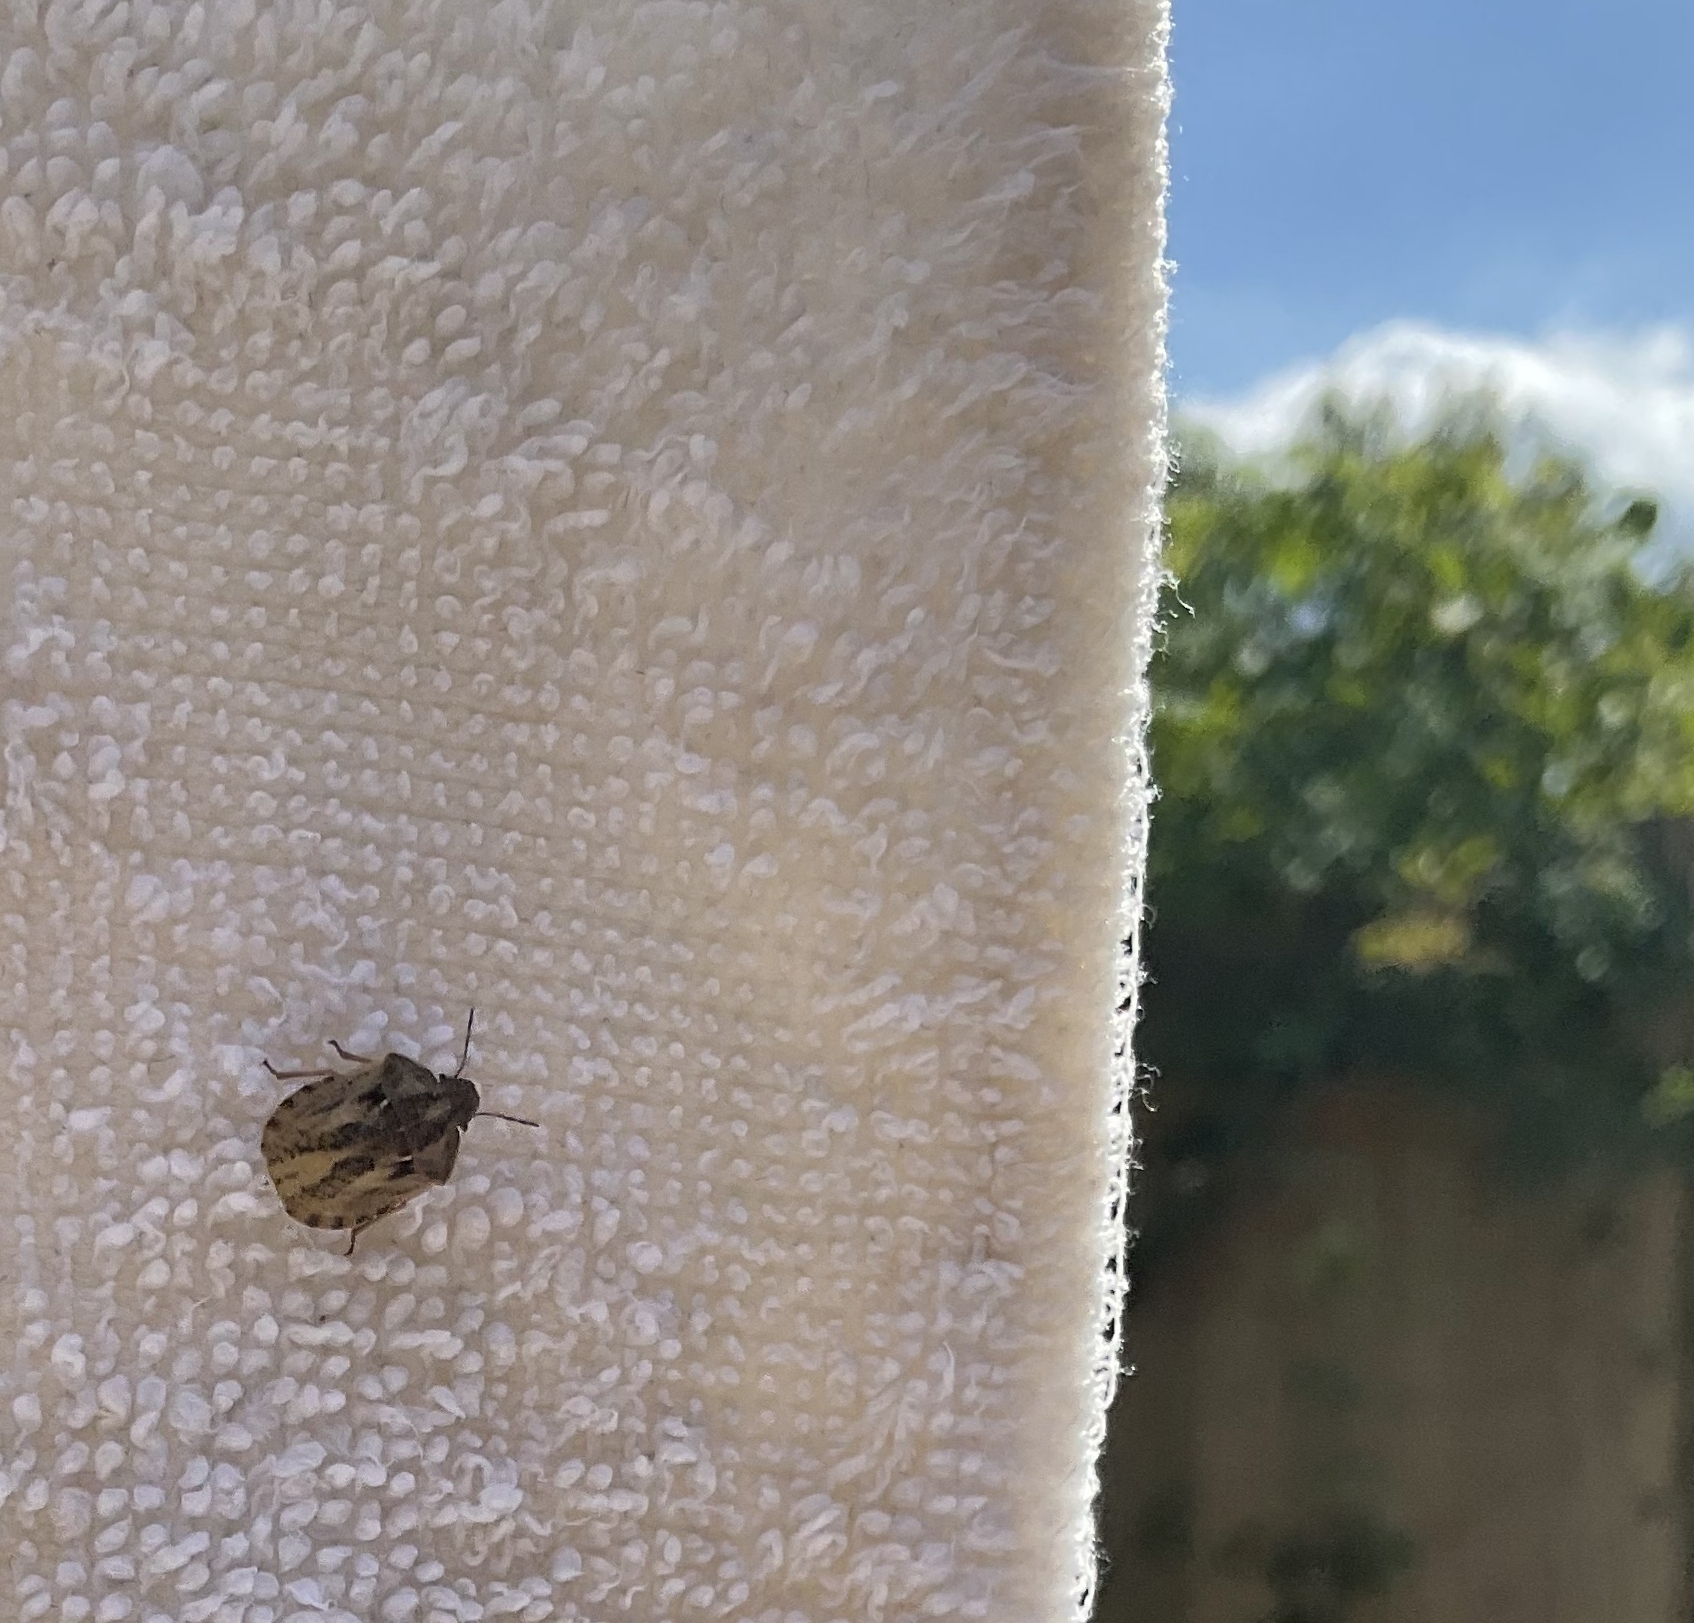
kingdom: Animalia
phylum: Arthropoda
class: Insecta
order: Hemiptera
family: Scutelleridae
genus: Eurygaster
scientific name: Eurygaster testudinaria
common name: Tortoise bug
